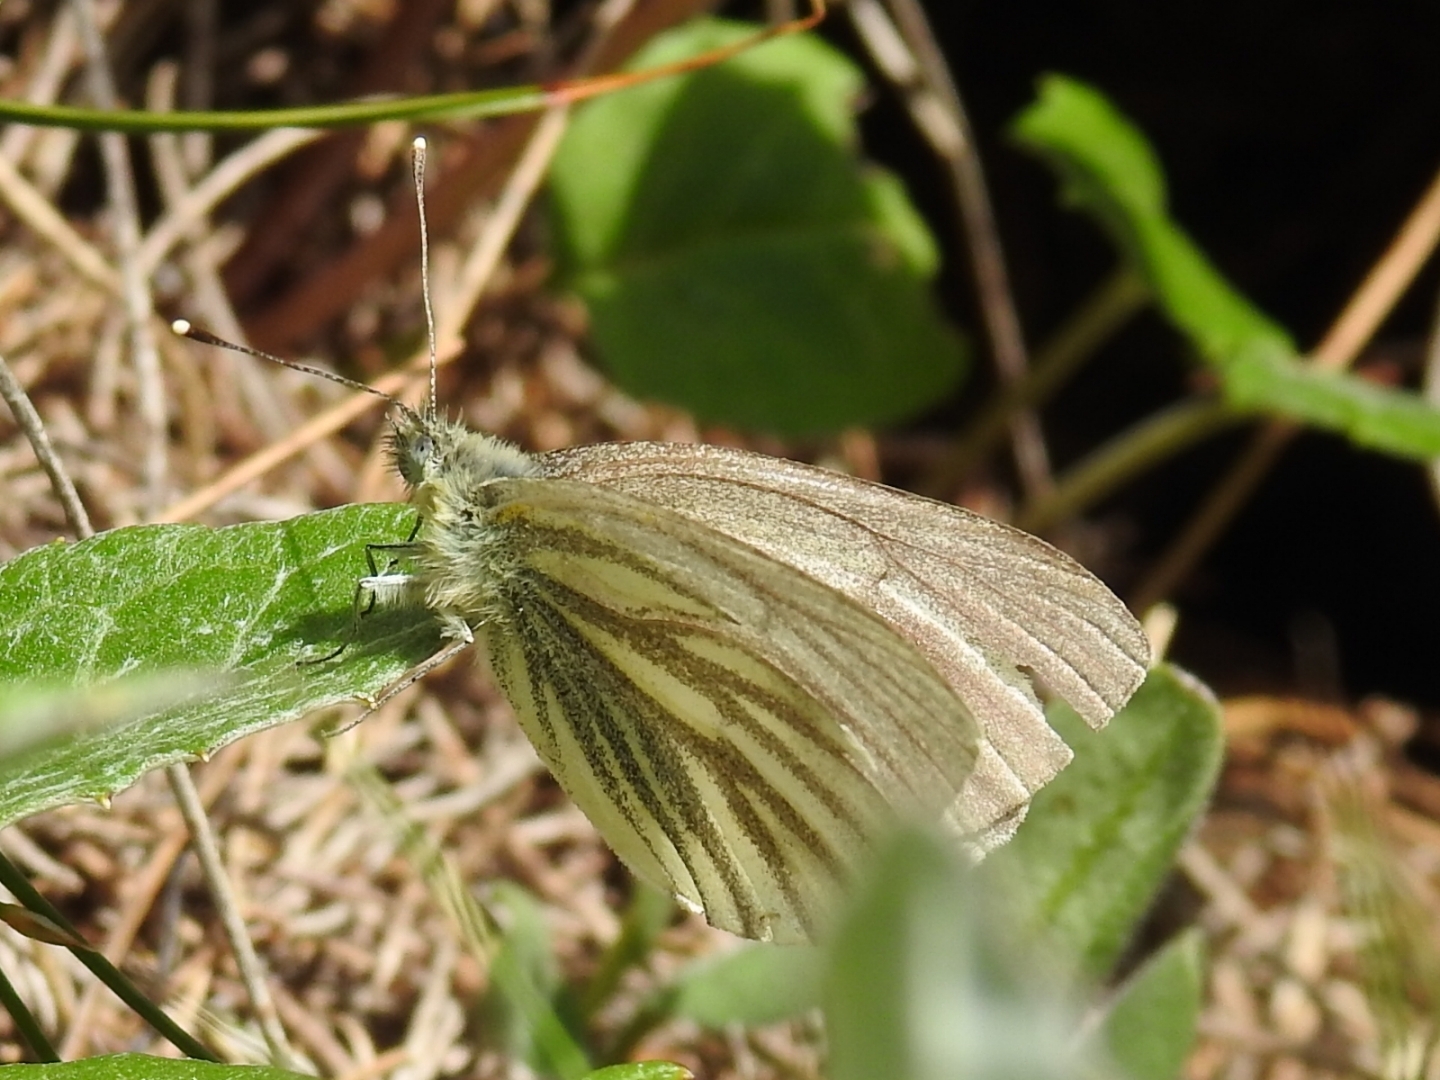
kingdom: Animalia
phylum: Arthropoda
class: Insecta
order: Lepidoptera
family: Pieridae
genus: Pieris
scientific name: Pieris bryoniae
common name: Mountain green-veined white
